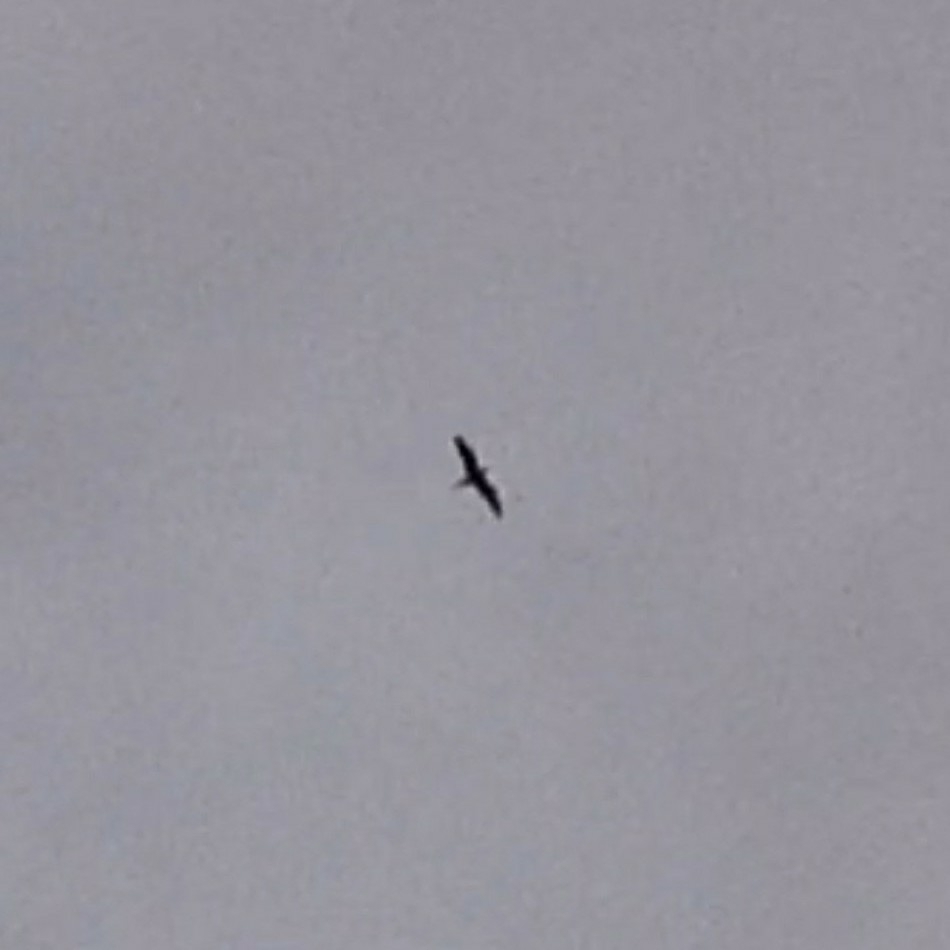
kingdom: Animalia
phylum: Chordata
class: Aves
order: Caprimulgiformes
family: Caprimulgidae
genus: Chordeiles
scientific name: Chordeiles minor
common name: Common nighthawk
